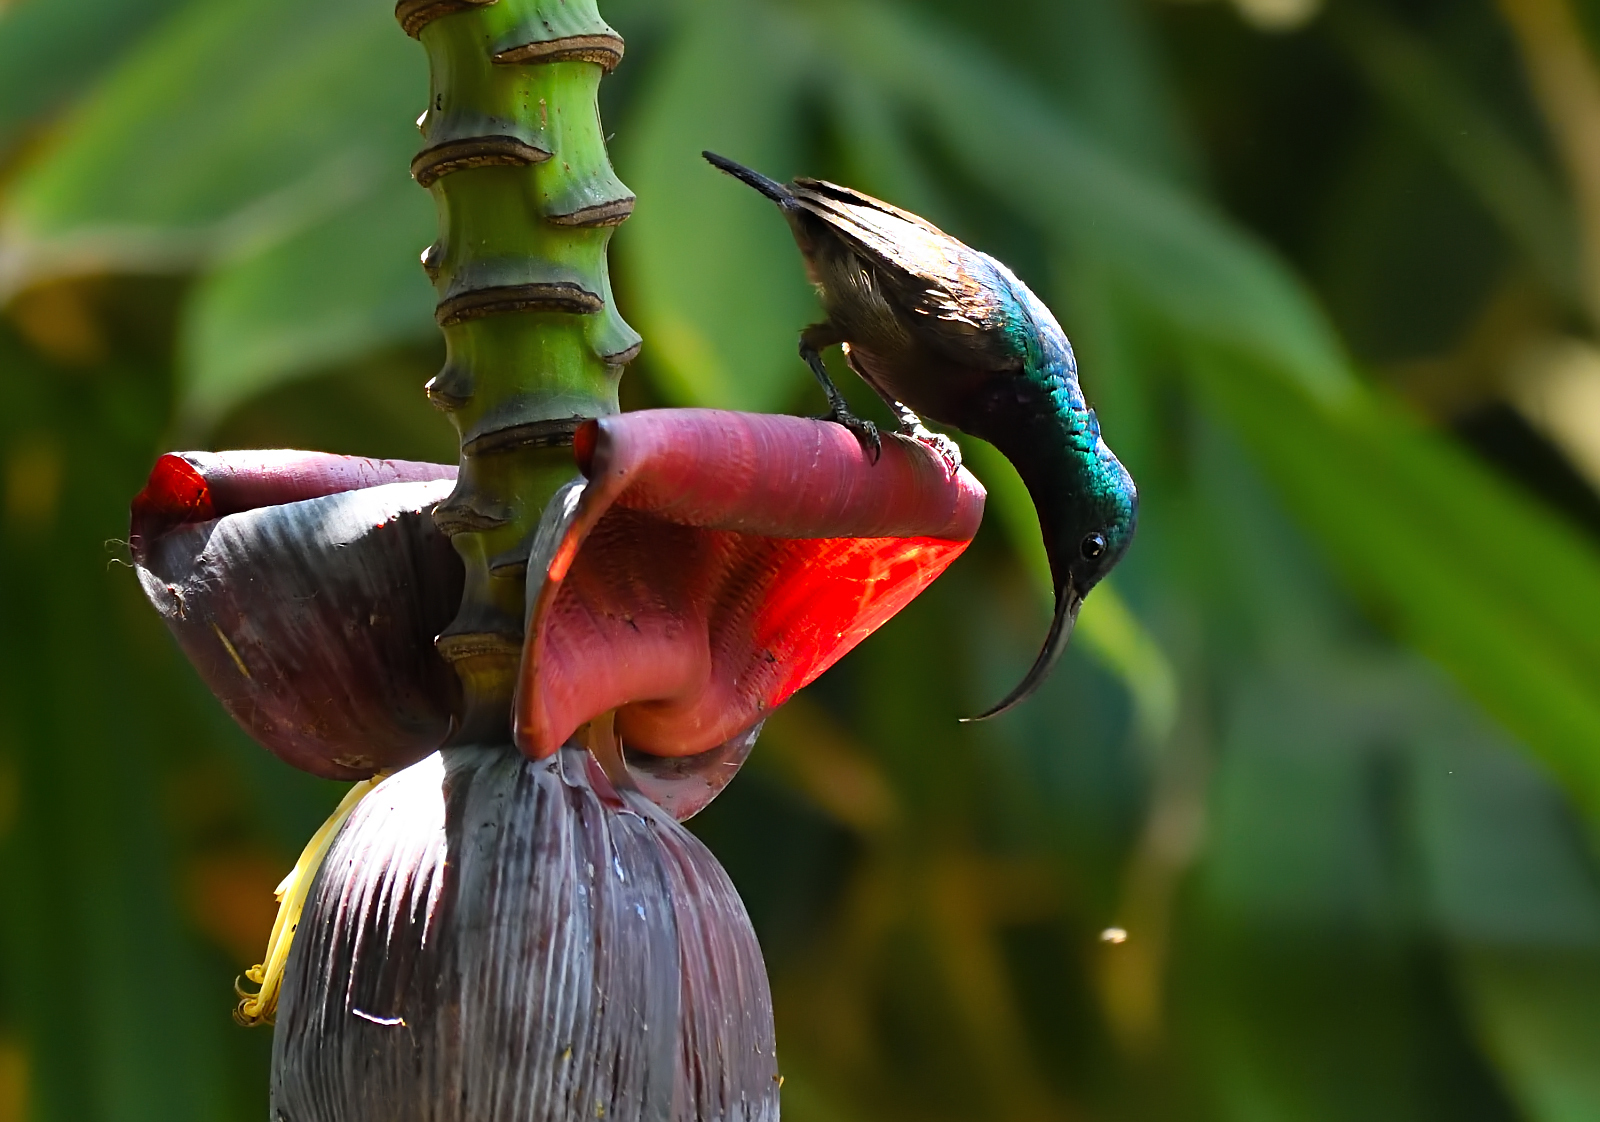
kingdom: Animalia
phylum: Chordata
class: Aves
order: Passeriformes
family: Nectariniidae
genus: Cinnyris
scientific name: Cinnyris lotenius
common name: Loten's sunbird
